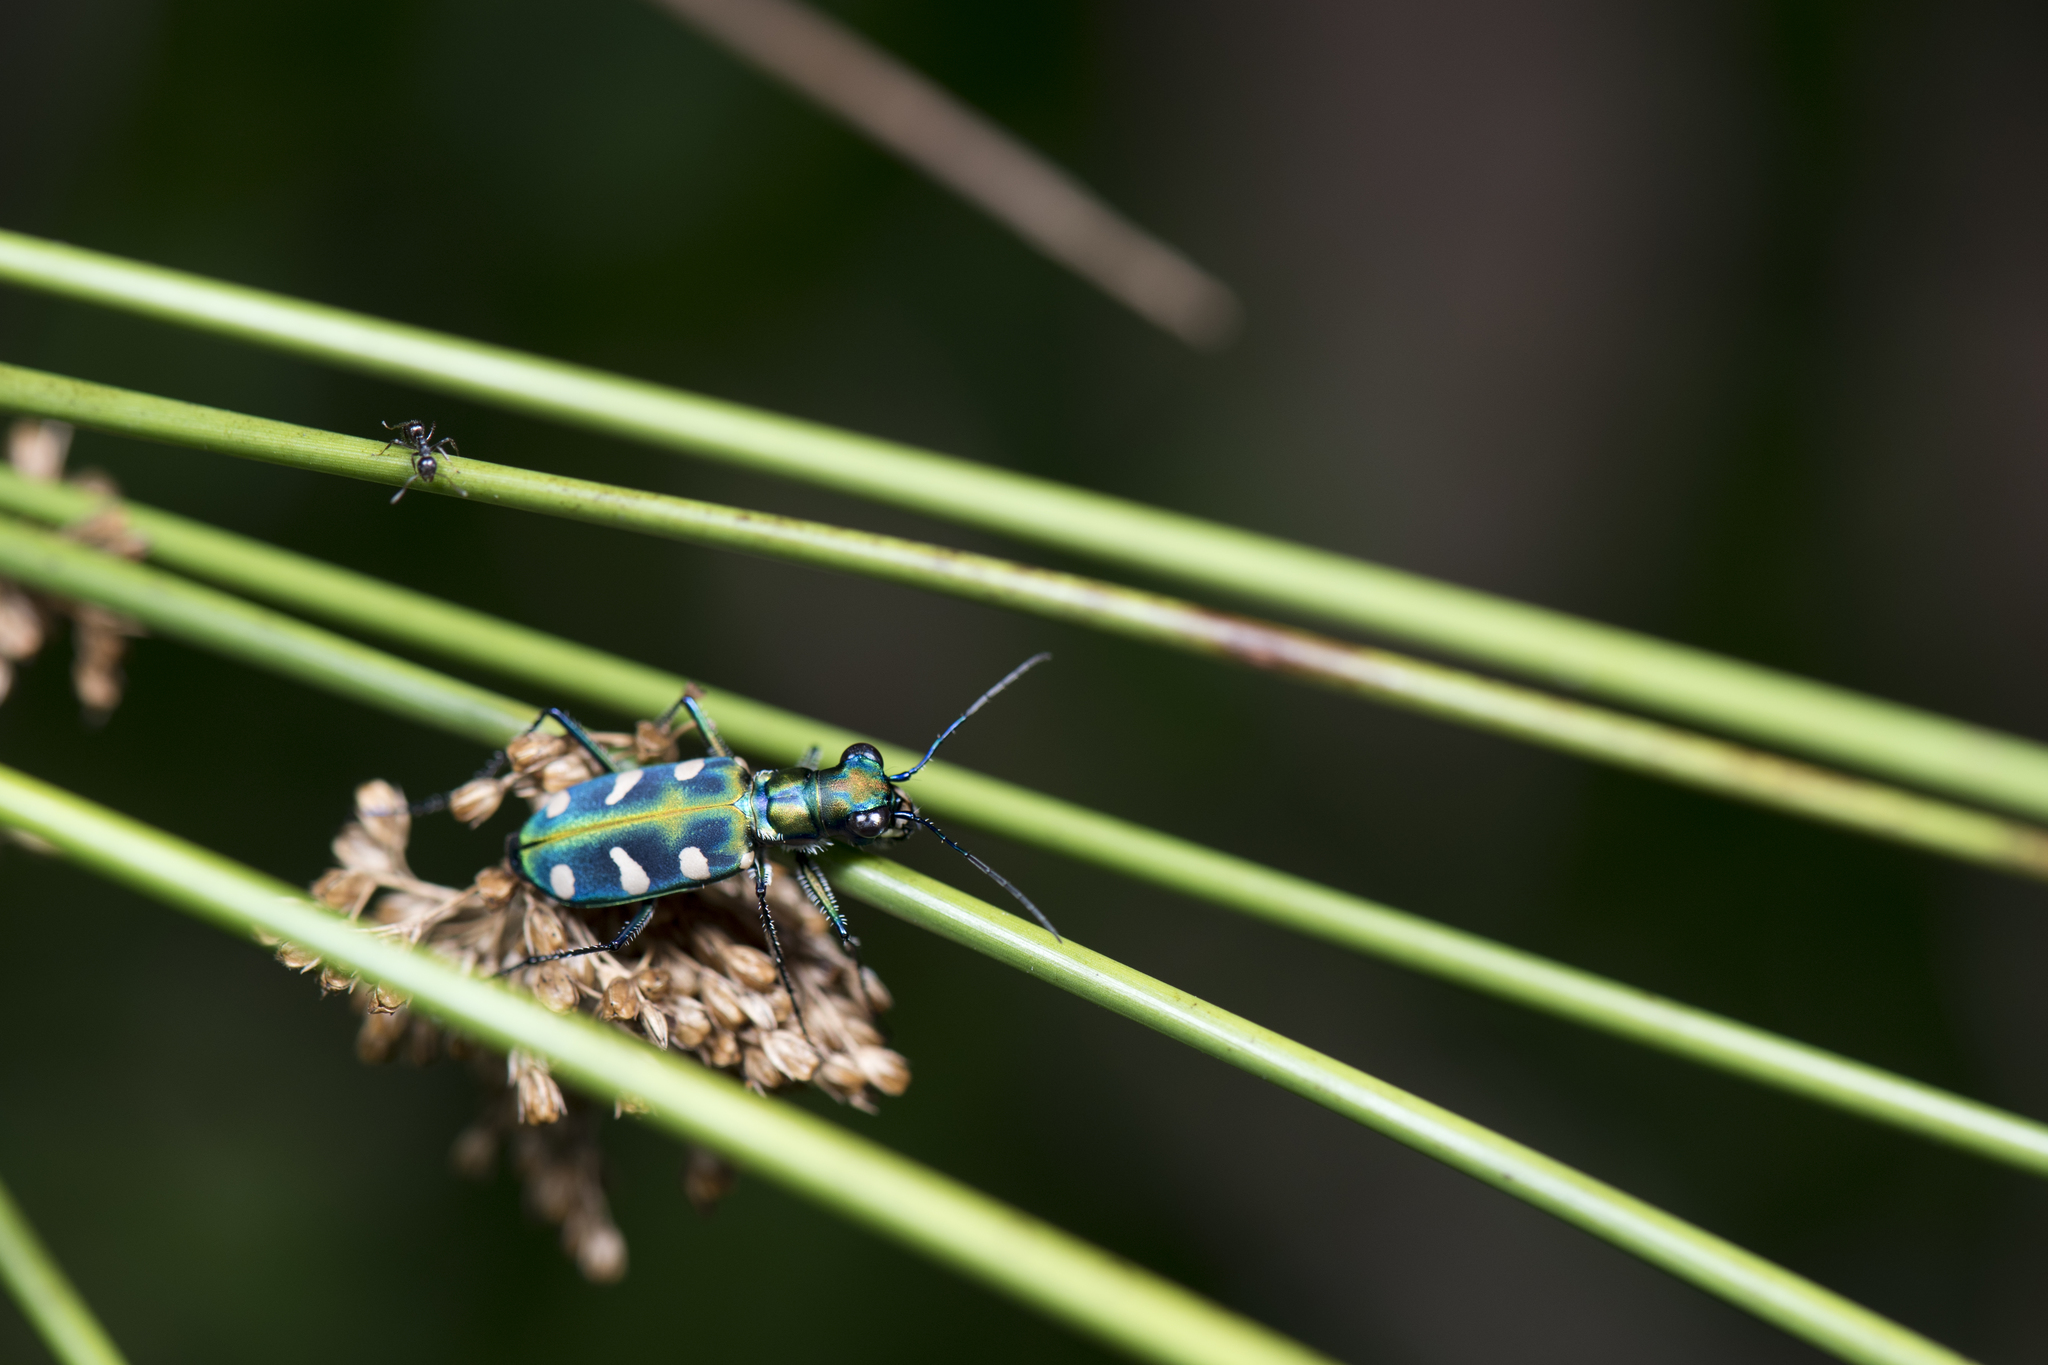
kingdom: Animalia
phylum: Arthropoda
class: Insecta
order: Coleoptera
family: Carabidae
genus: Cicindela
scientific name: Cicindela batesi
